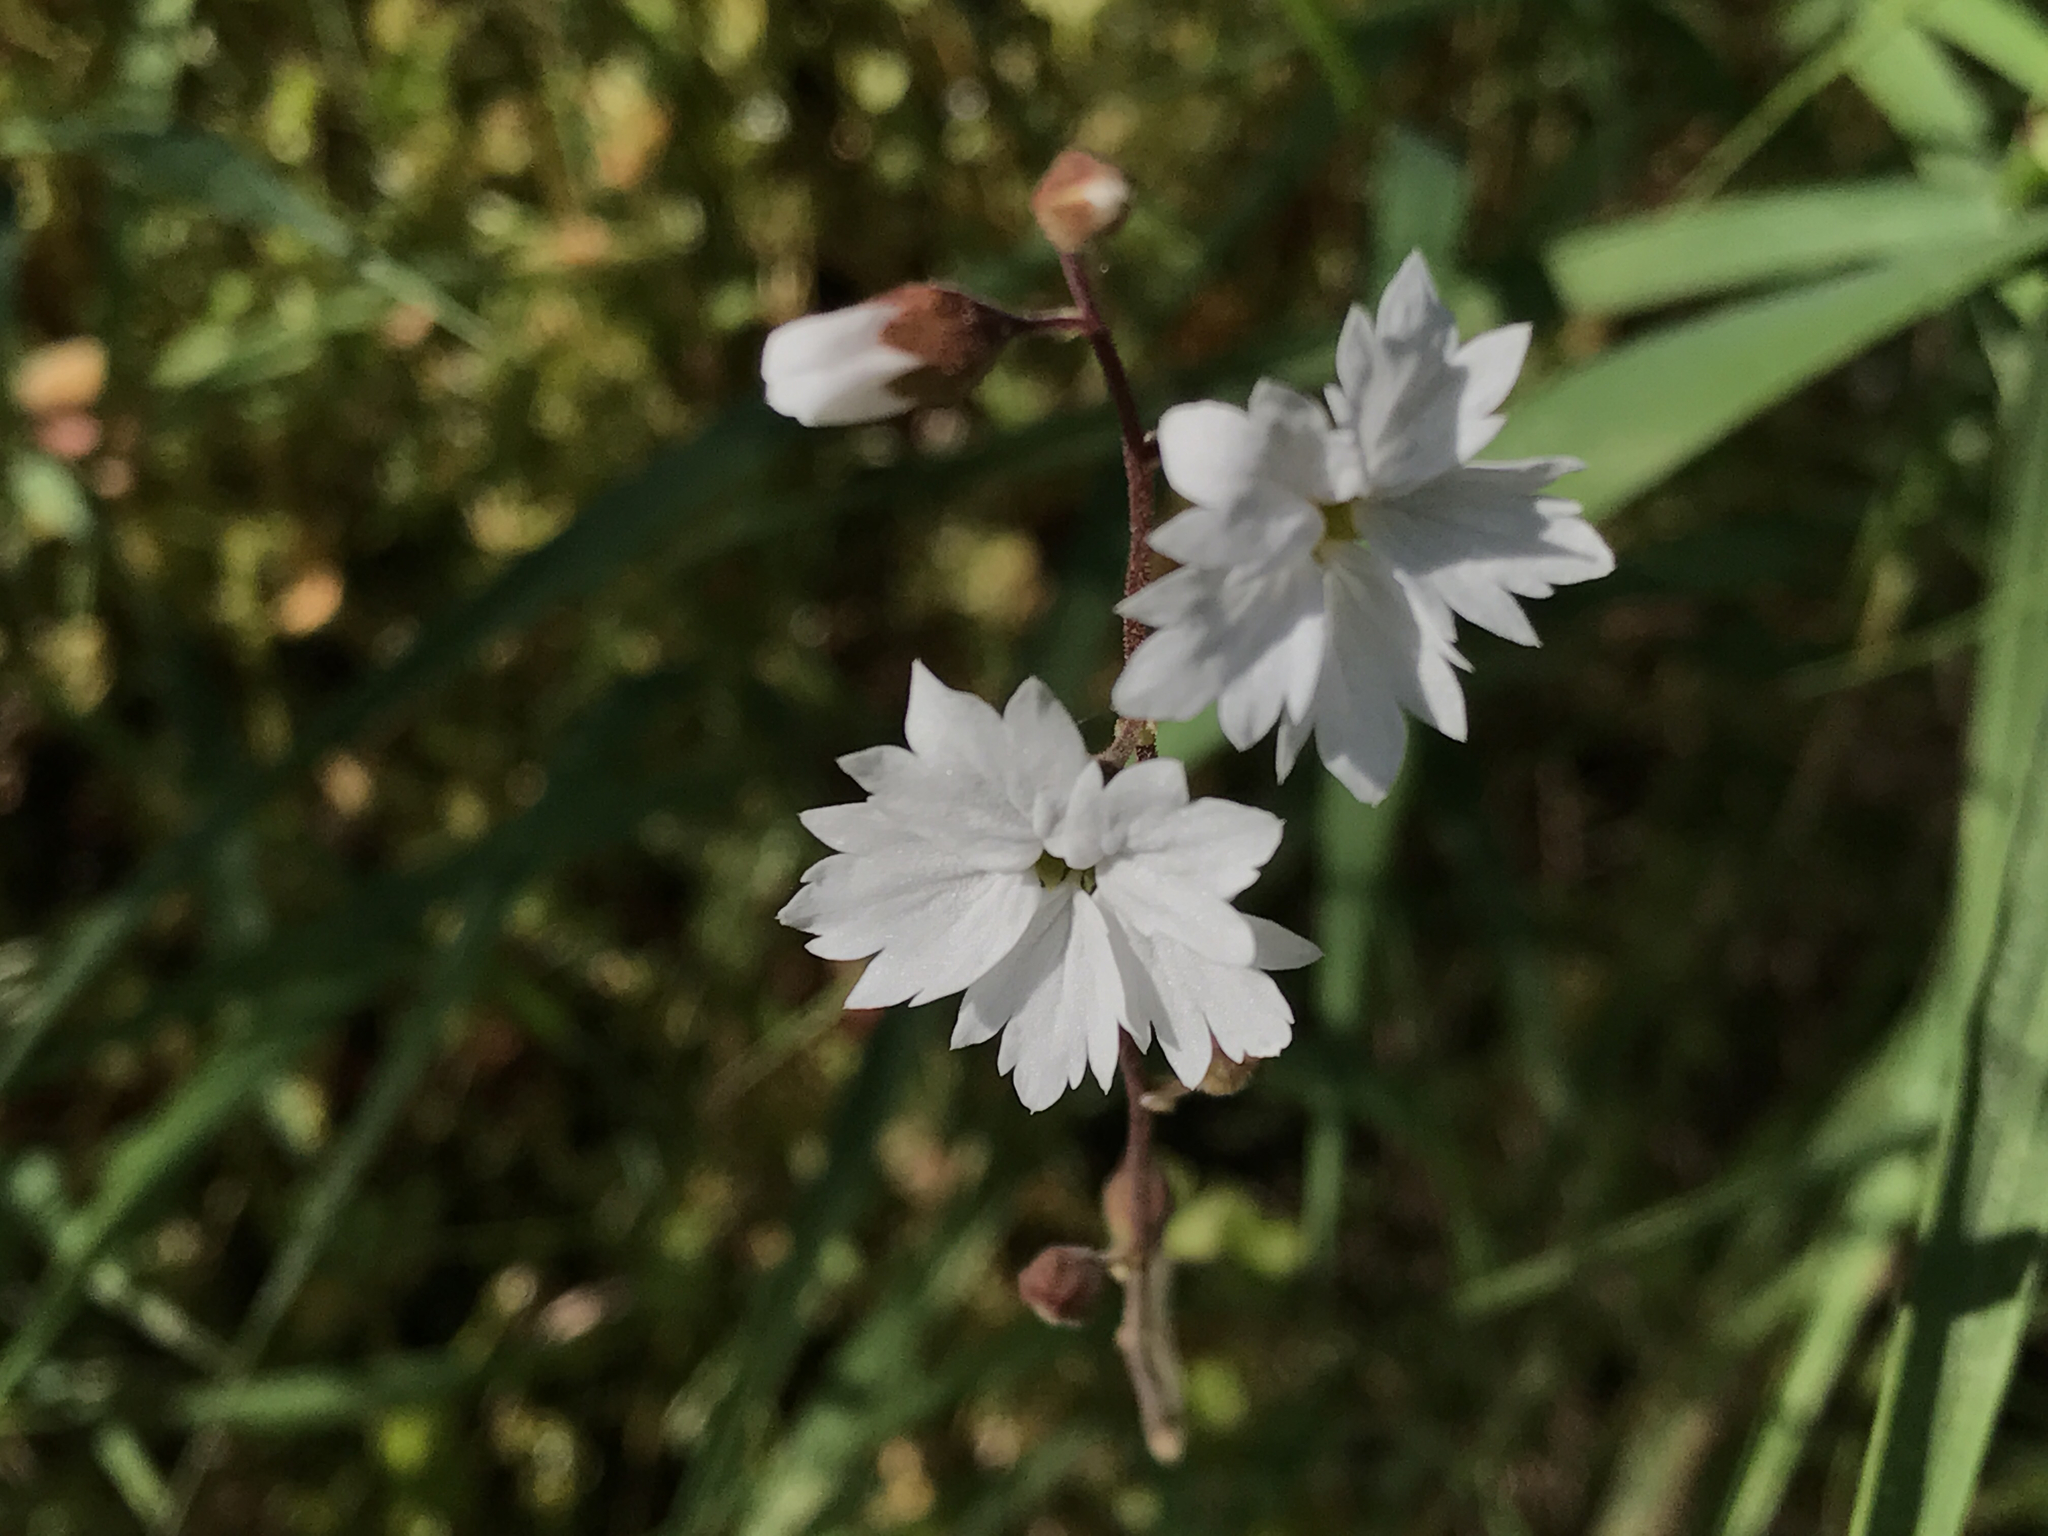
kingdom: Plantae
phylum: Tracheophyta
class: Magnoliopsida
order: Saxifragales
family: Saxifragaceae
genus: Lithophragma
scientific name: Lithophragma affine
